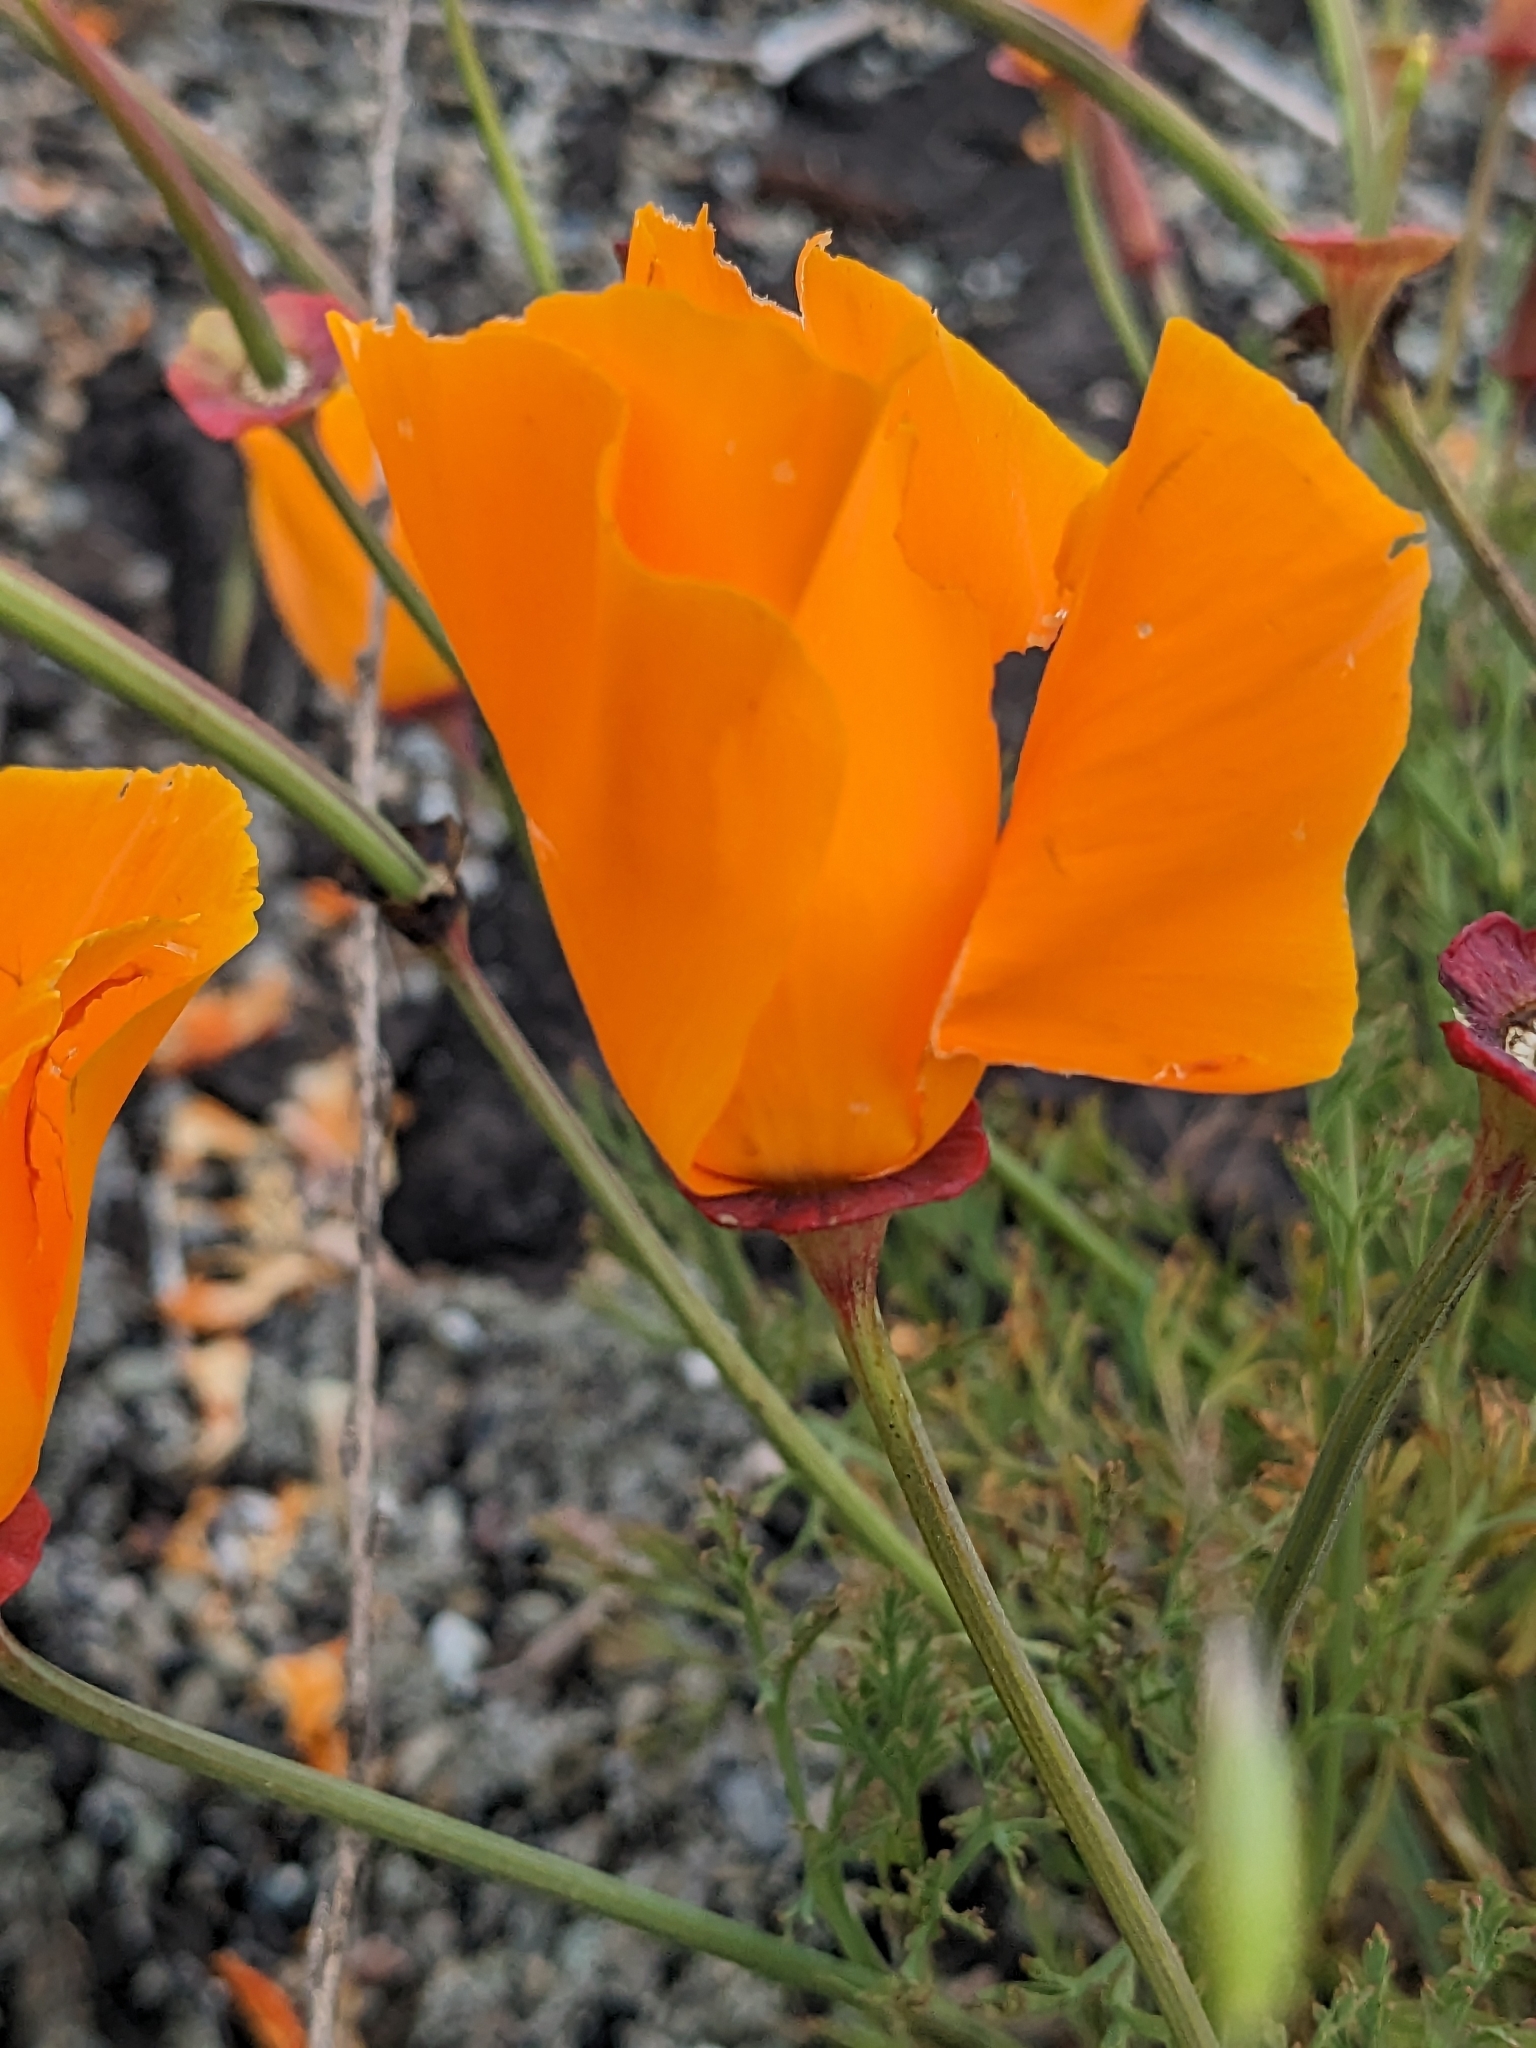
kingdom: Plantae
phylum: Tracheophyta
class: Magnoliopsida
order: Ranunculales
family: Papaveraceae
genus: Eschscholzia
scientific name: Eschscholzia californica
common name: California poppy
